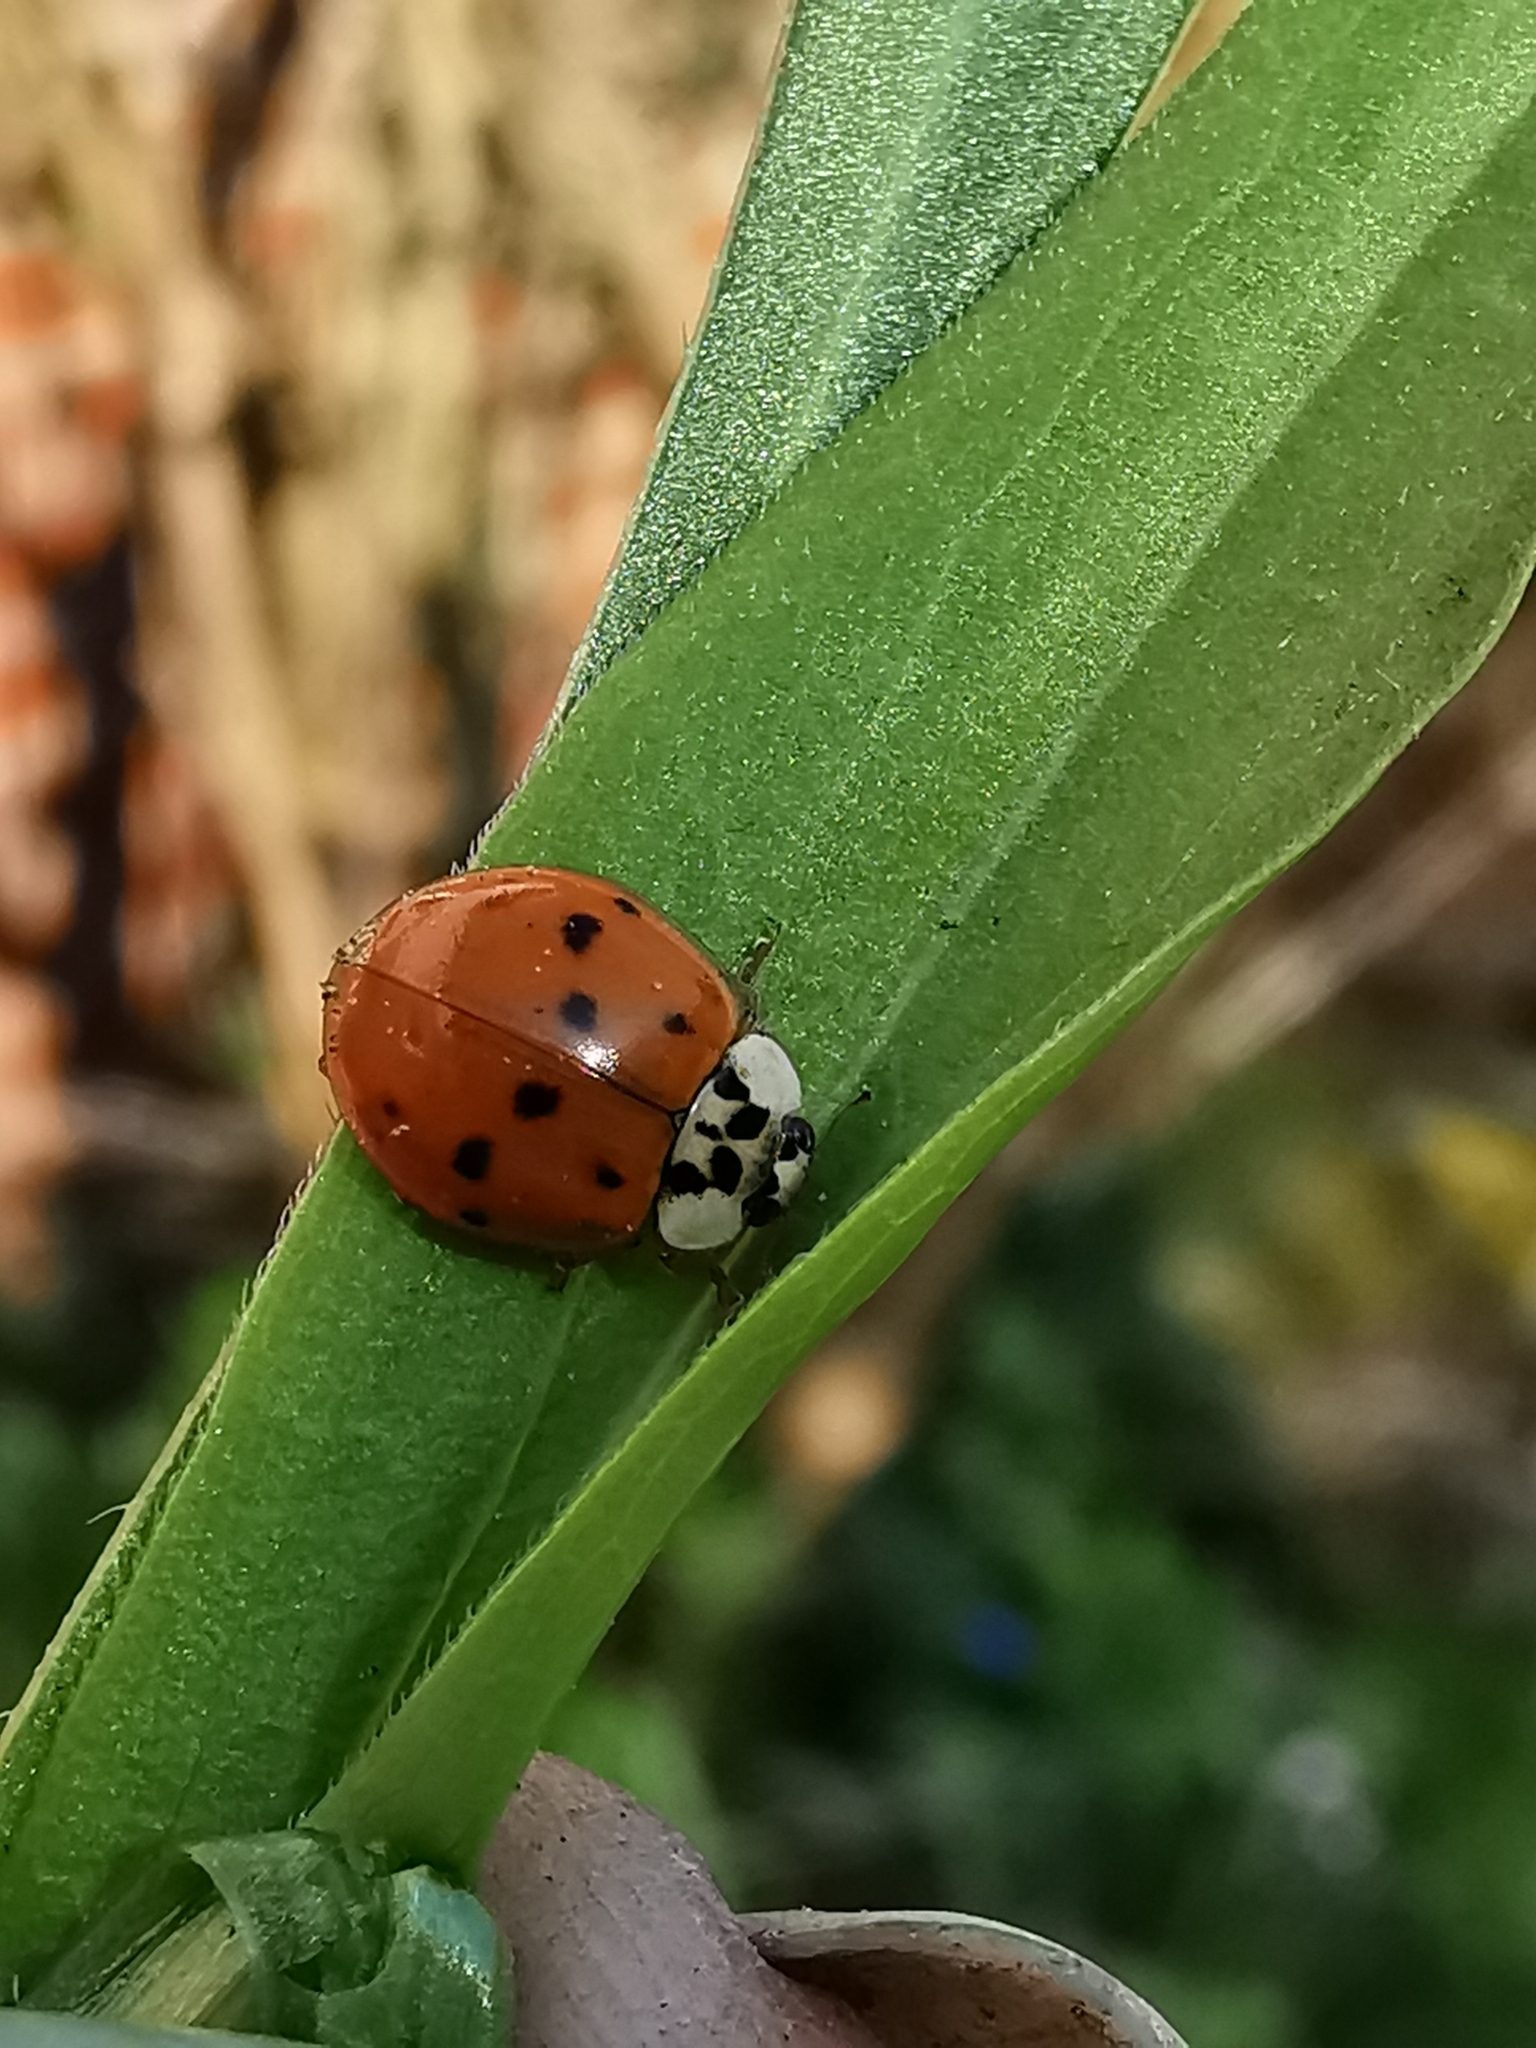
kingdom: Animalia
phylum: Arthropoda
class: Insecta
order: Coleoptera
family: Coccinellidae
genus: Harmonia
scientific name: Harmonia axyridis
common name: Harlequin ladybird
